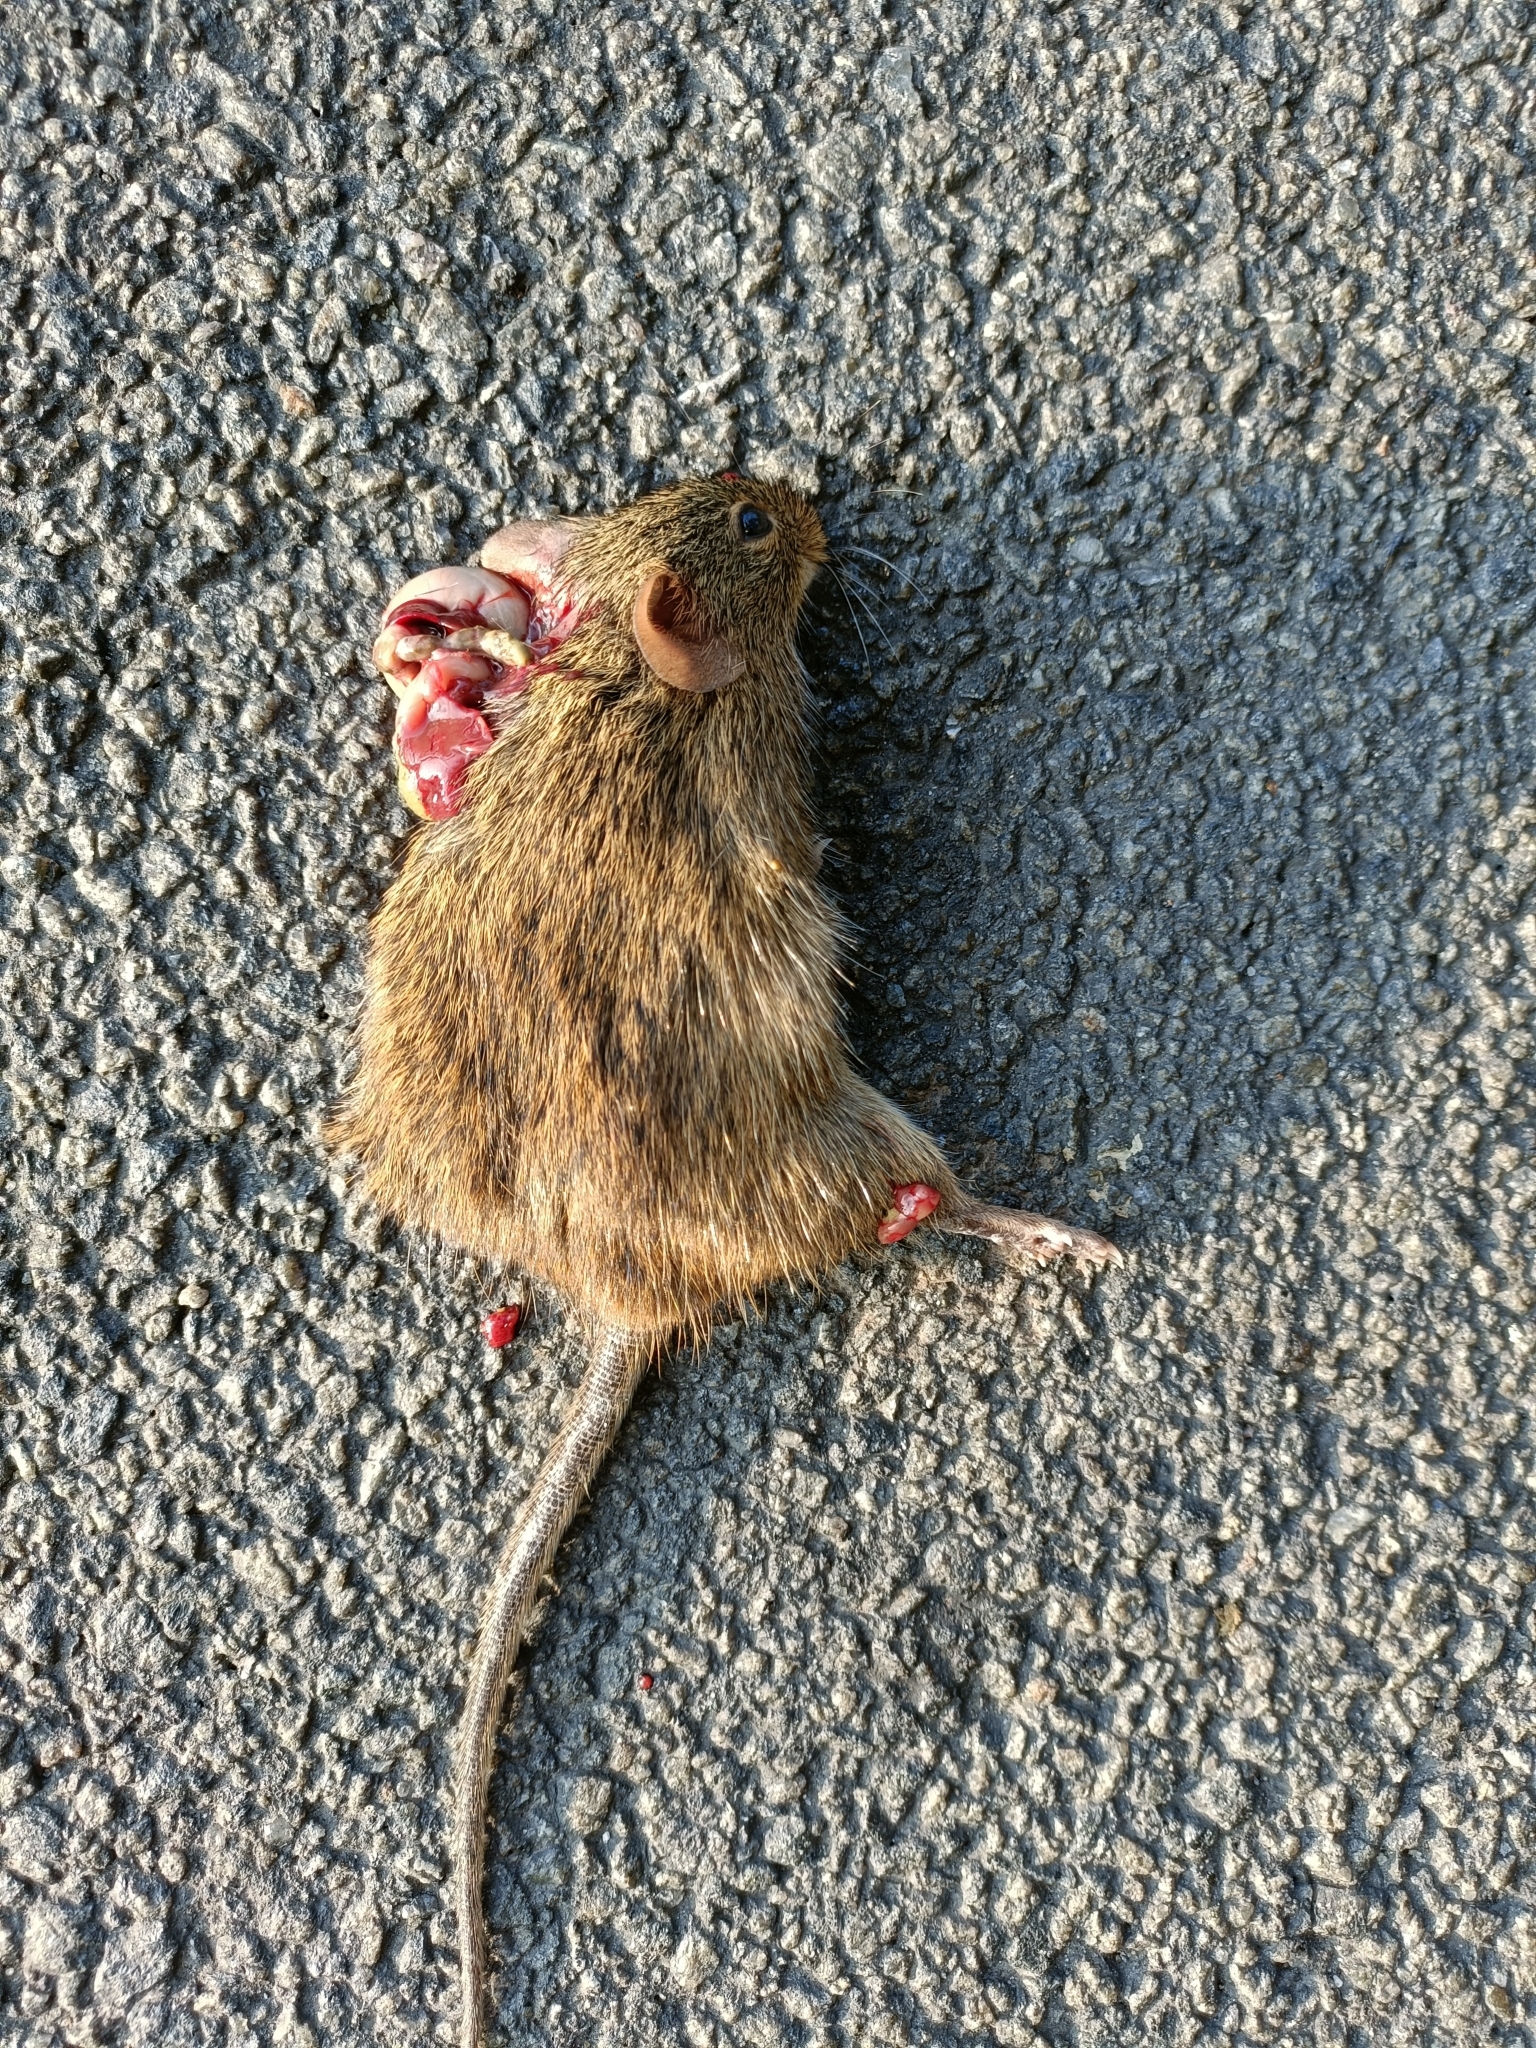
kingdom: Animalia
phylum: Chordata
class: Mammalia
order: Rodentia
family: Muridae
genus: Golunda
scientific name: Golunda ellioti
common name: Indian bush rat
